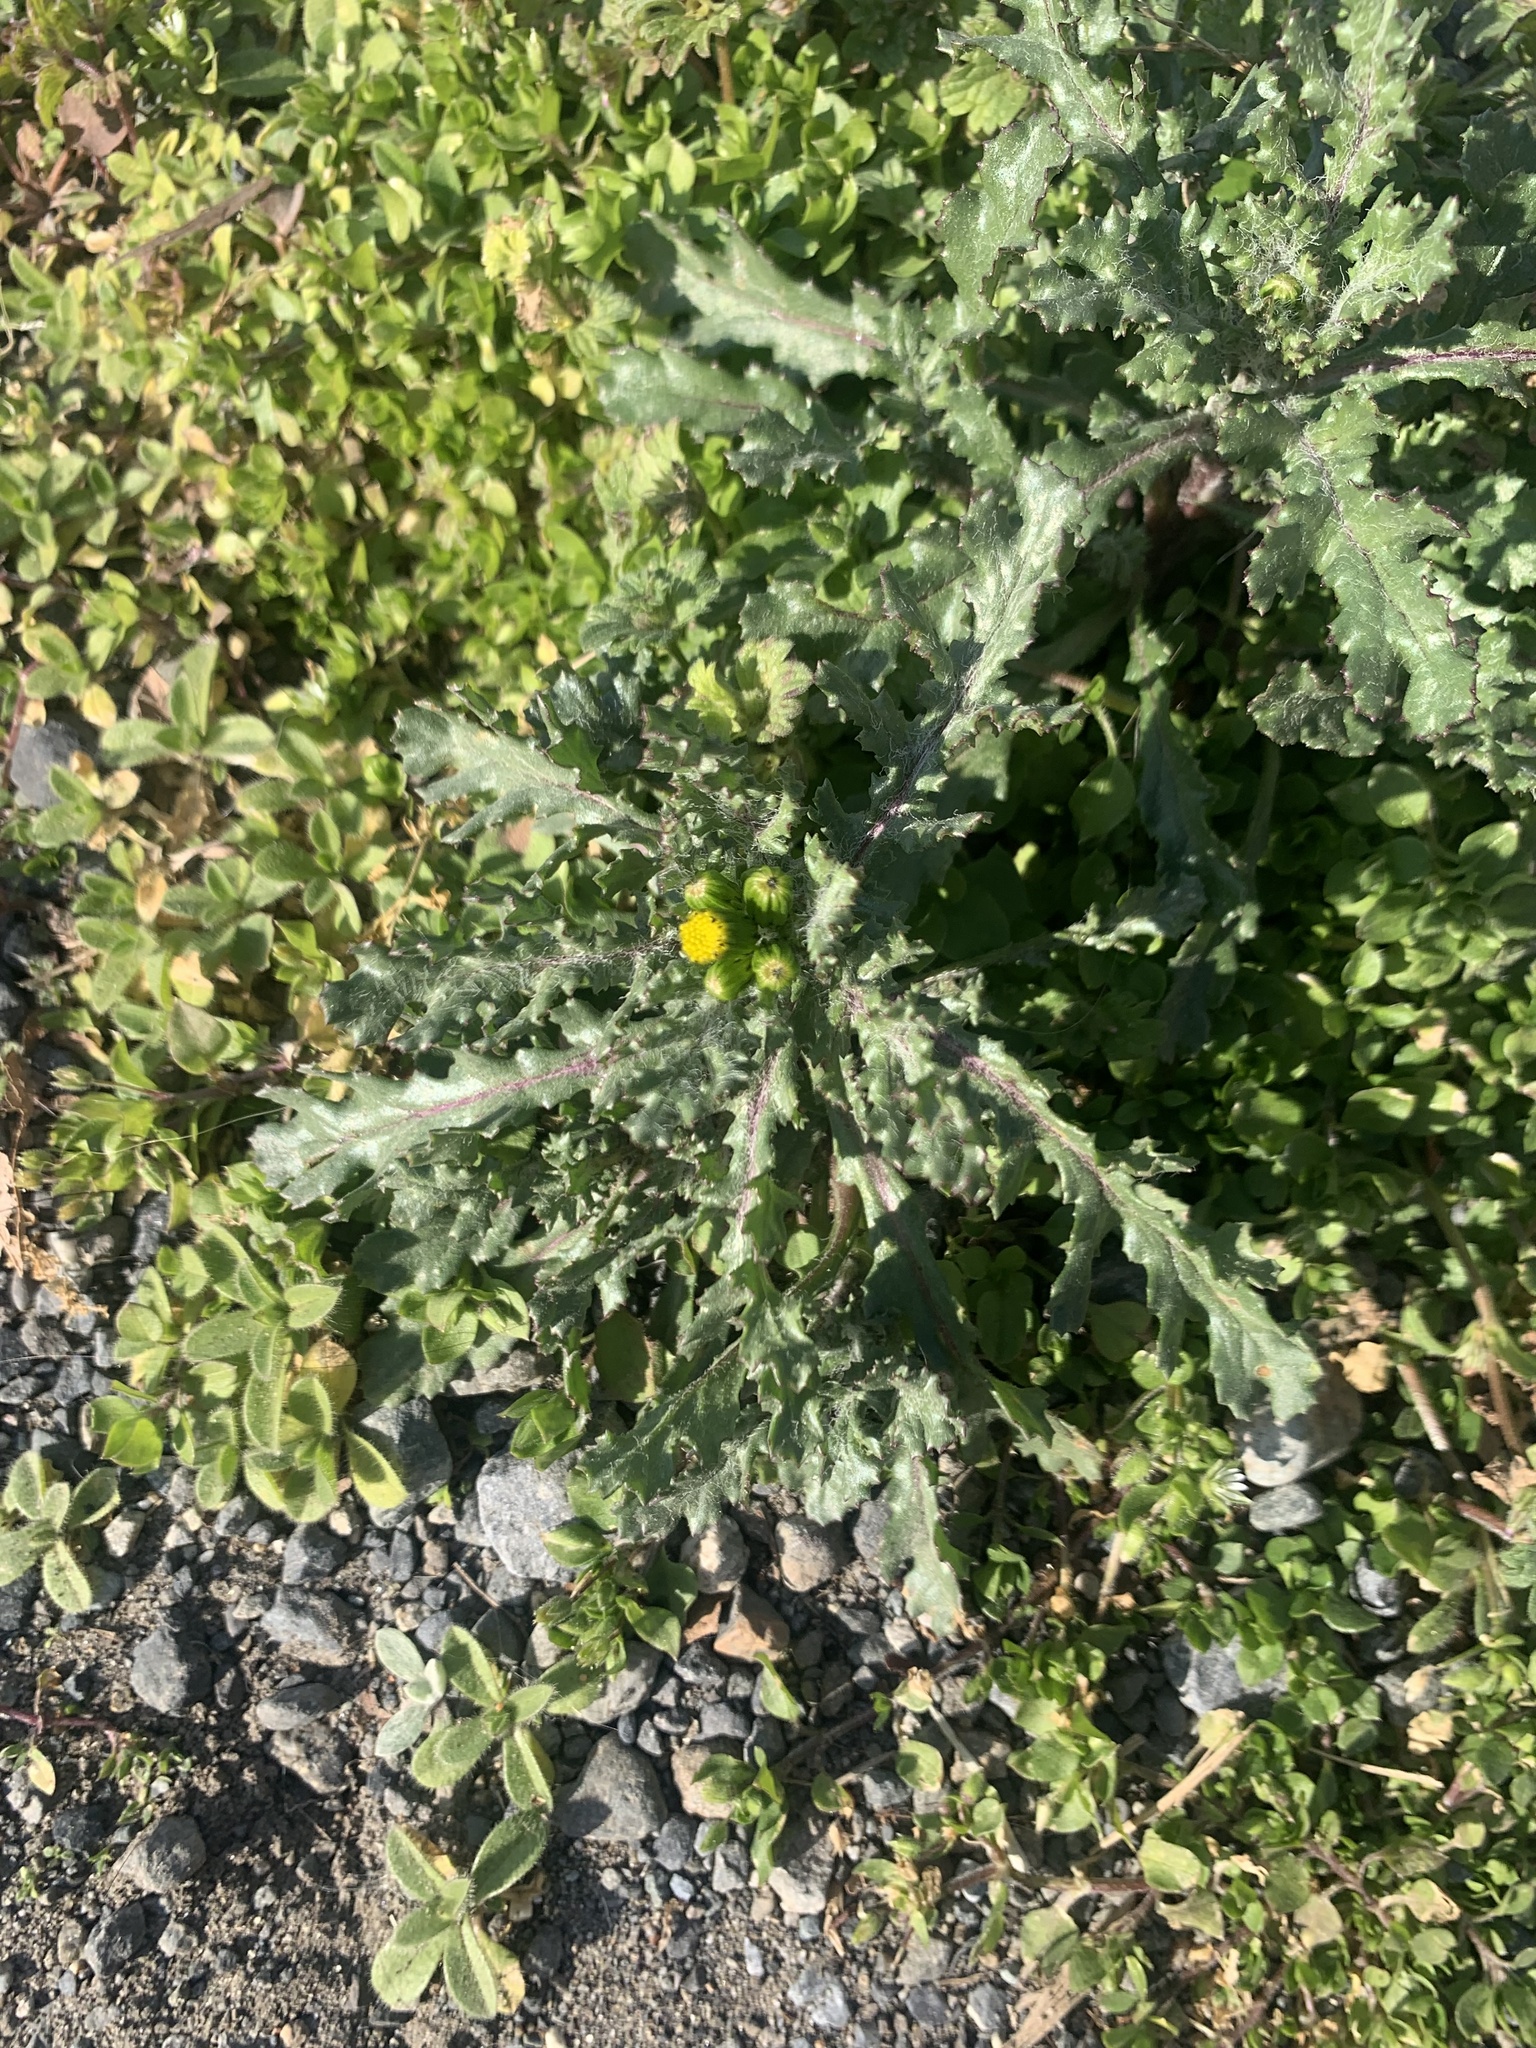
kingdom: Plantae
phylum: Tracheophyta
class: Magnoliopsida
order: Asterales
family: Asteraceae
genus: Senecio
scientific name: Senecio vulgaris
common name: Old-man-in-the-spring
